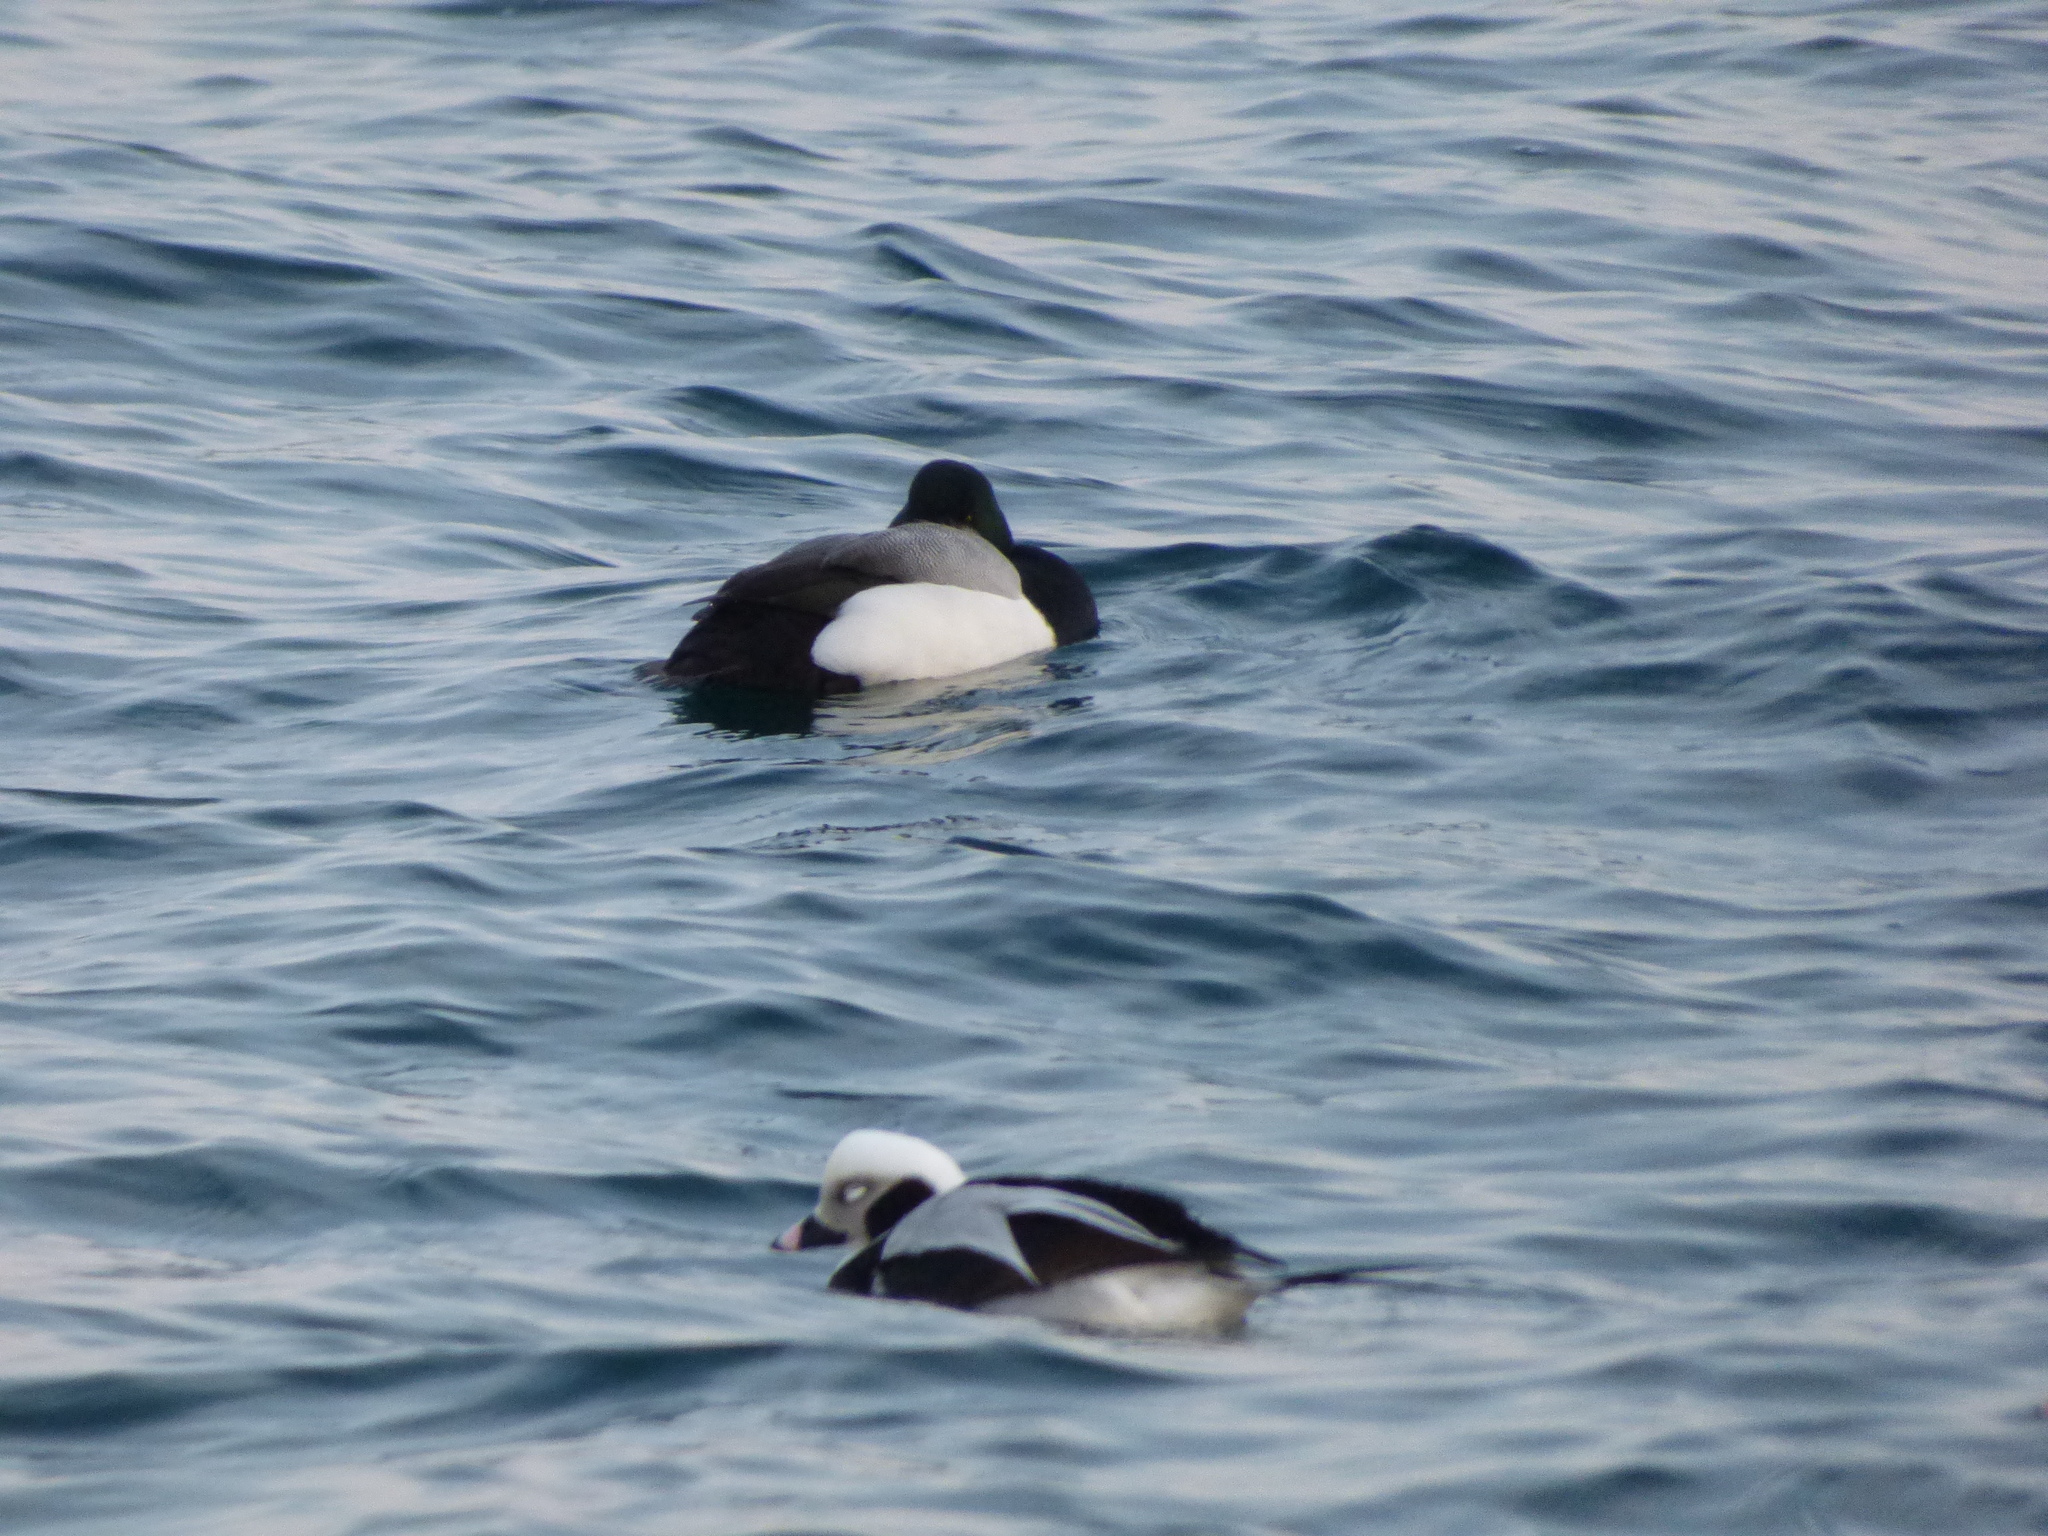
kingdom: Animalia
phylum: Chordata
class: Aves
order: Anseriformes
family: Anatidae
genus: Aythya
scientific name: Aythya marila
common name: Greater scaup
